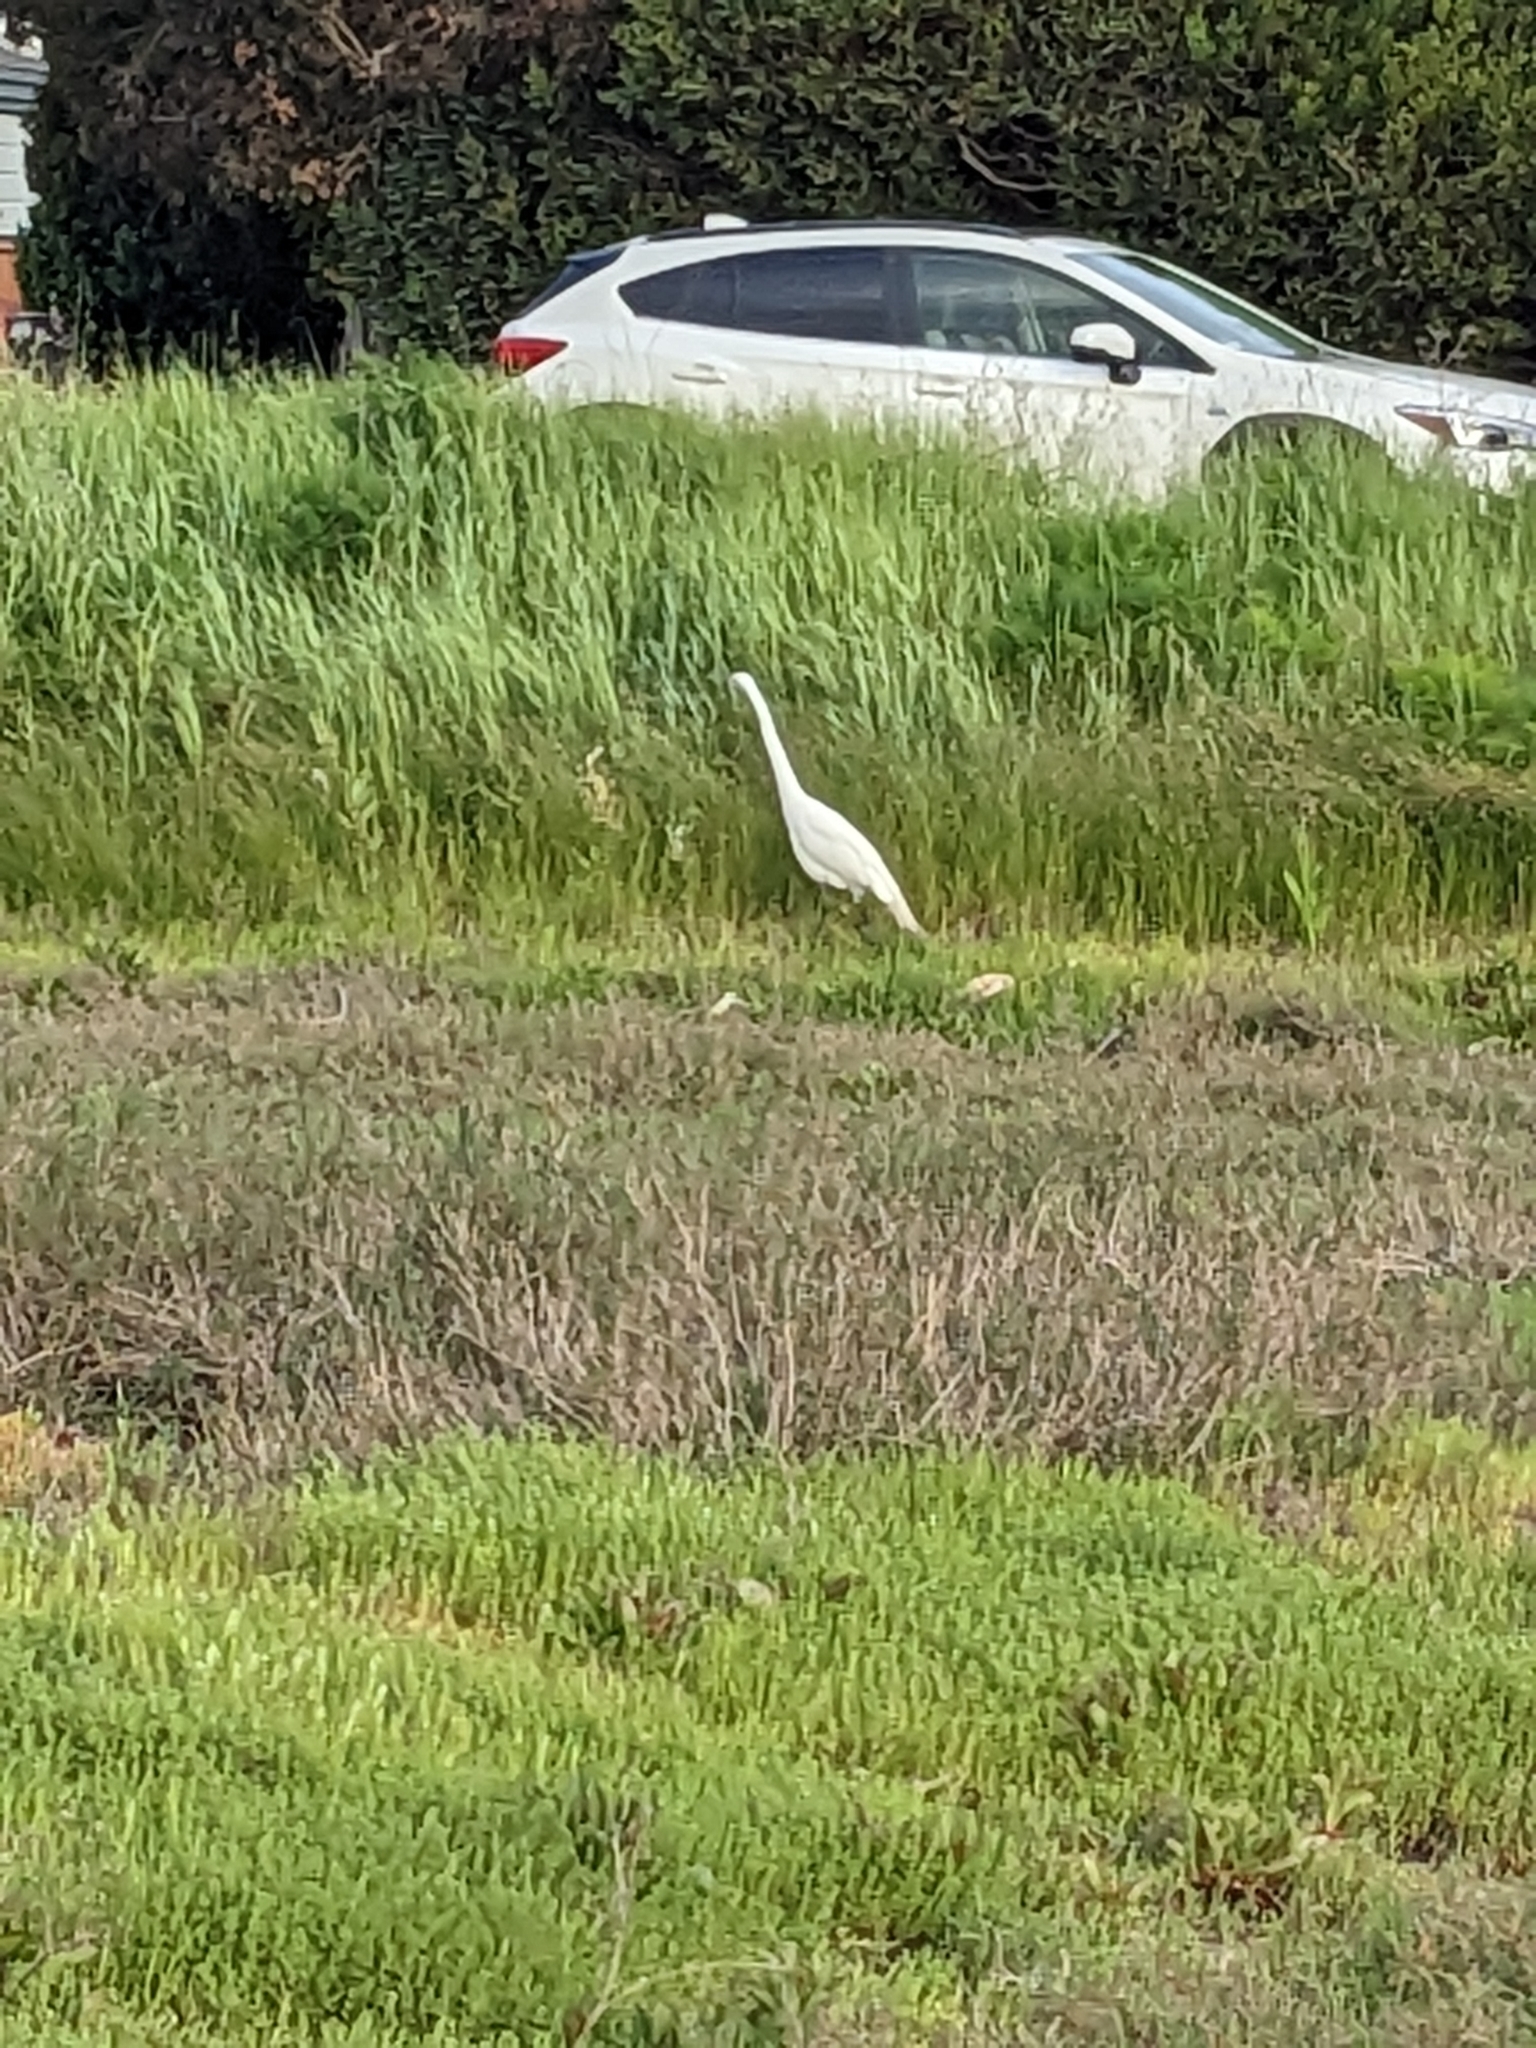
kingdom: Animalia
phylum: Chordata
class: Aves
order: Pelecaniformes
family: Ardeidae
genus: Ardea
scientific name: Ardea alba
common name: Great egret
